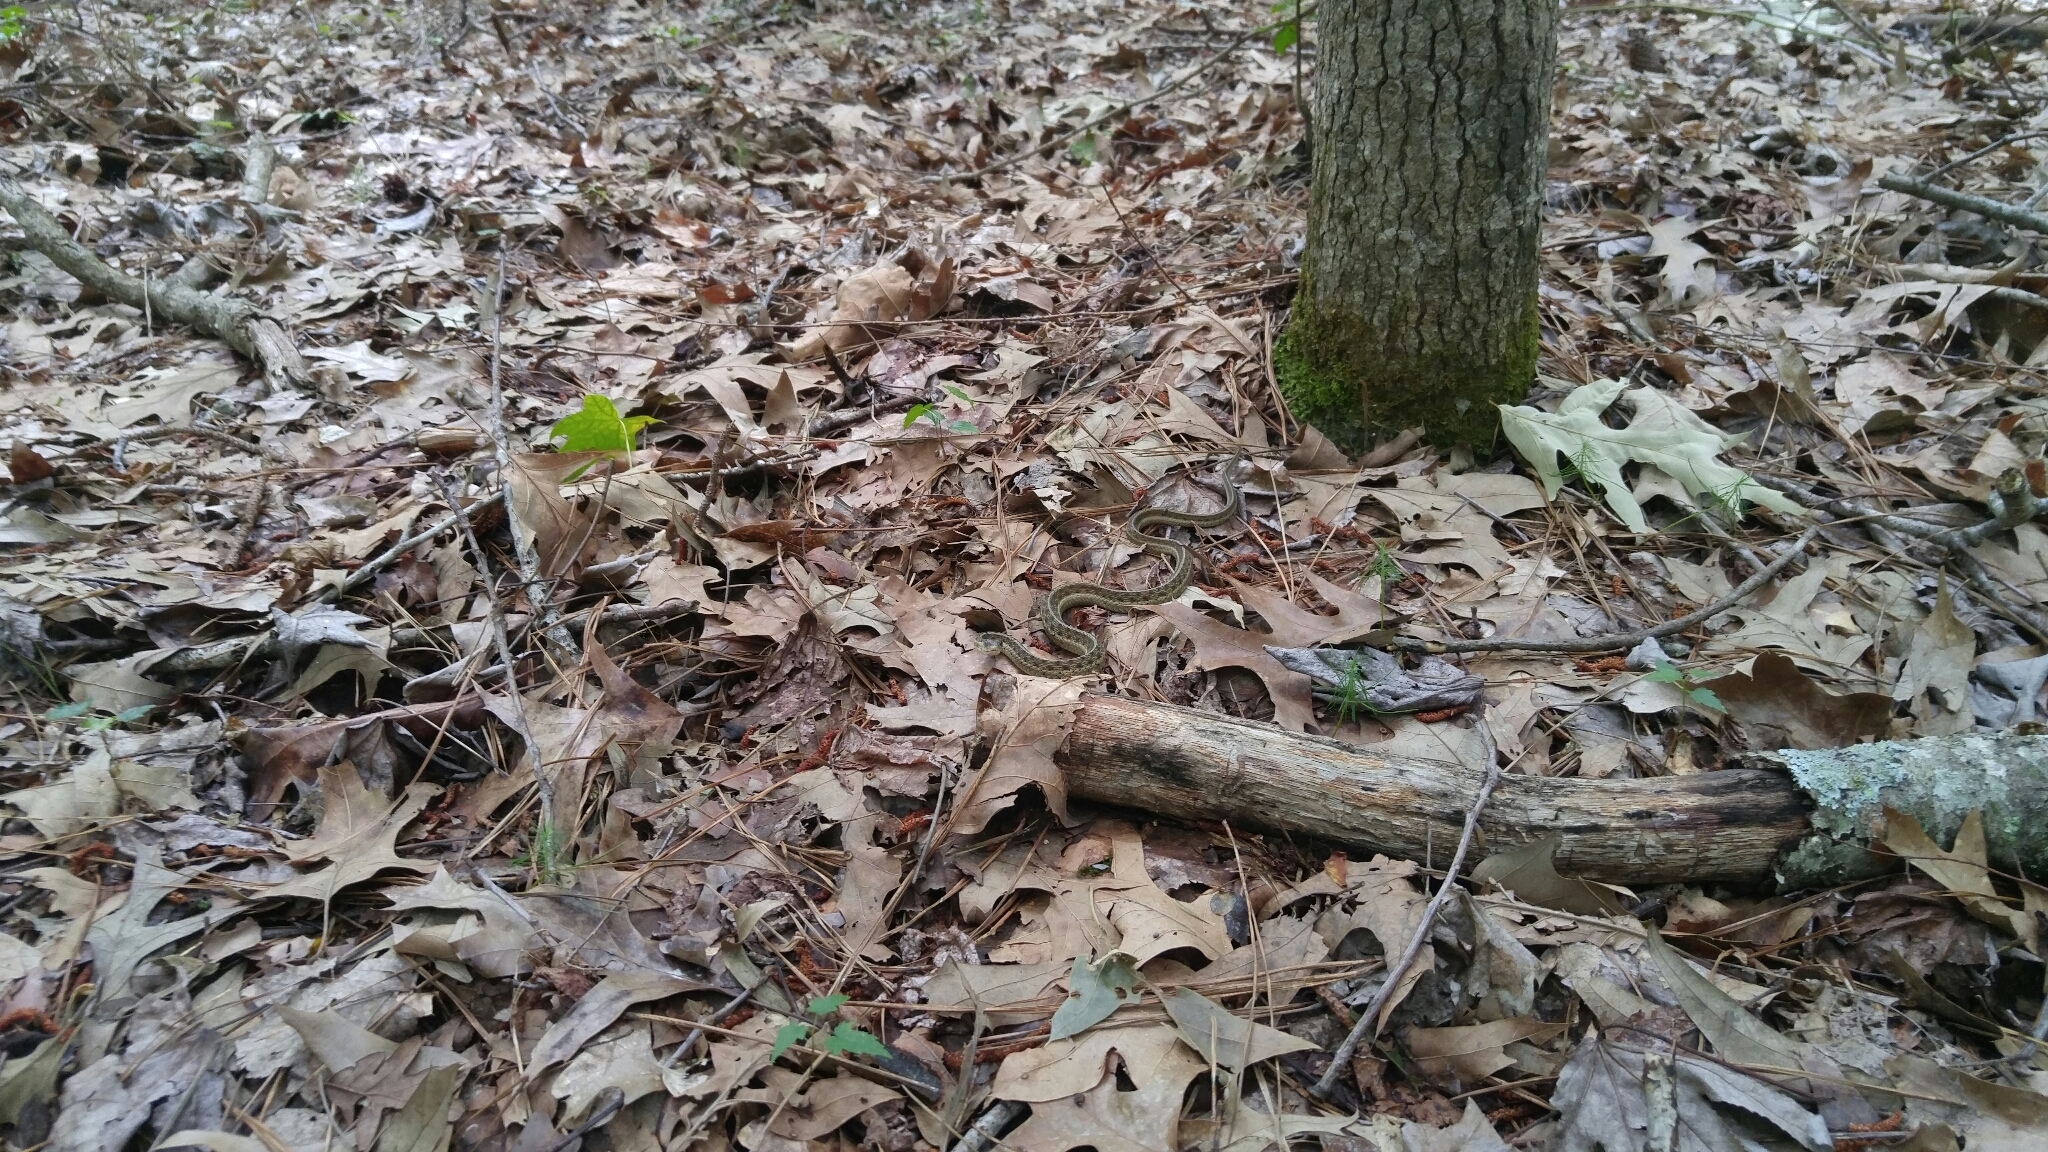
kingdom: Animalia
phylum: Chordata
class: Squamata
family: Colubridae
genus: Thamnophis
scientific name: Thamnophis sirtalis
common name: Common garter snake
